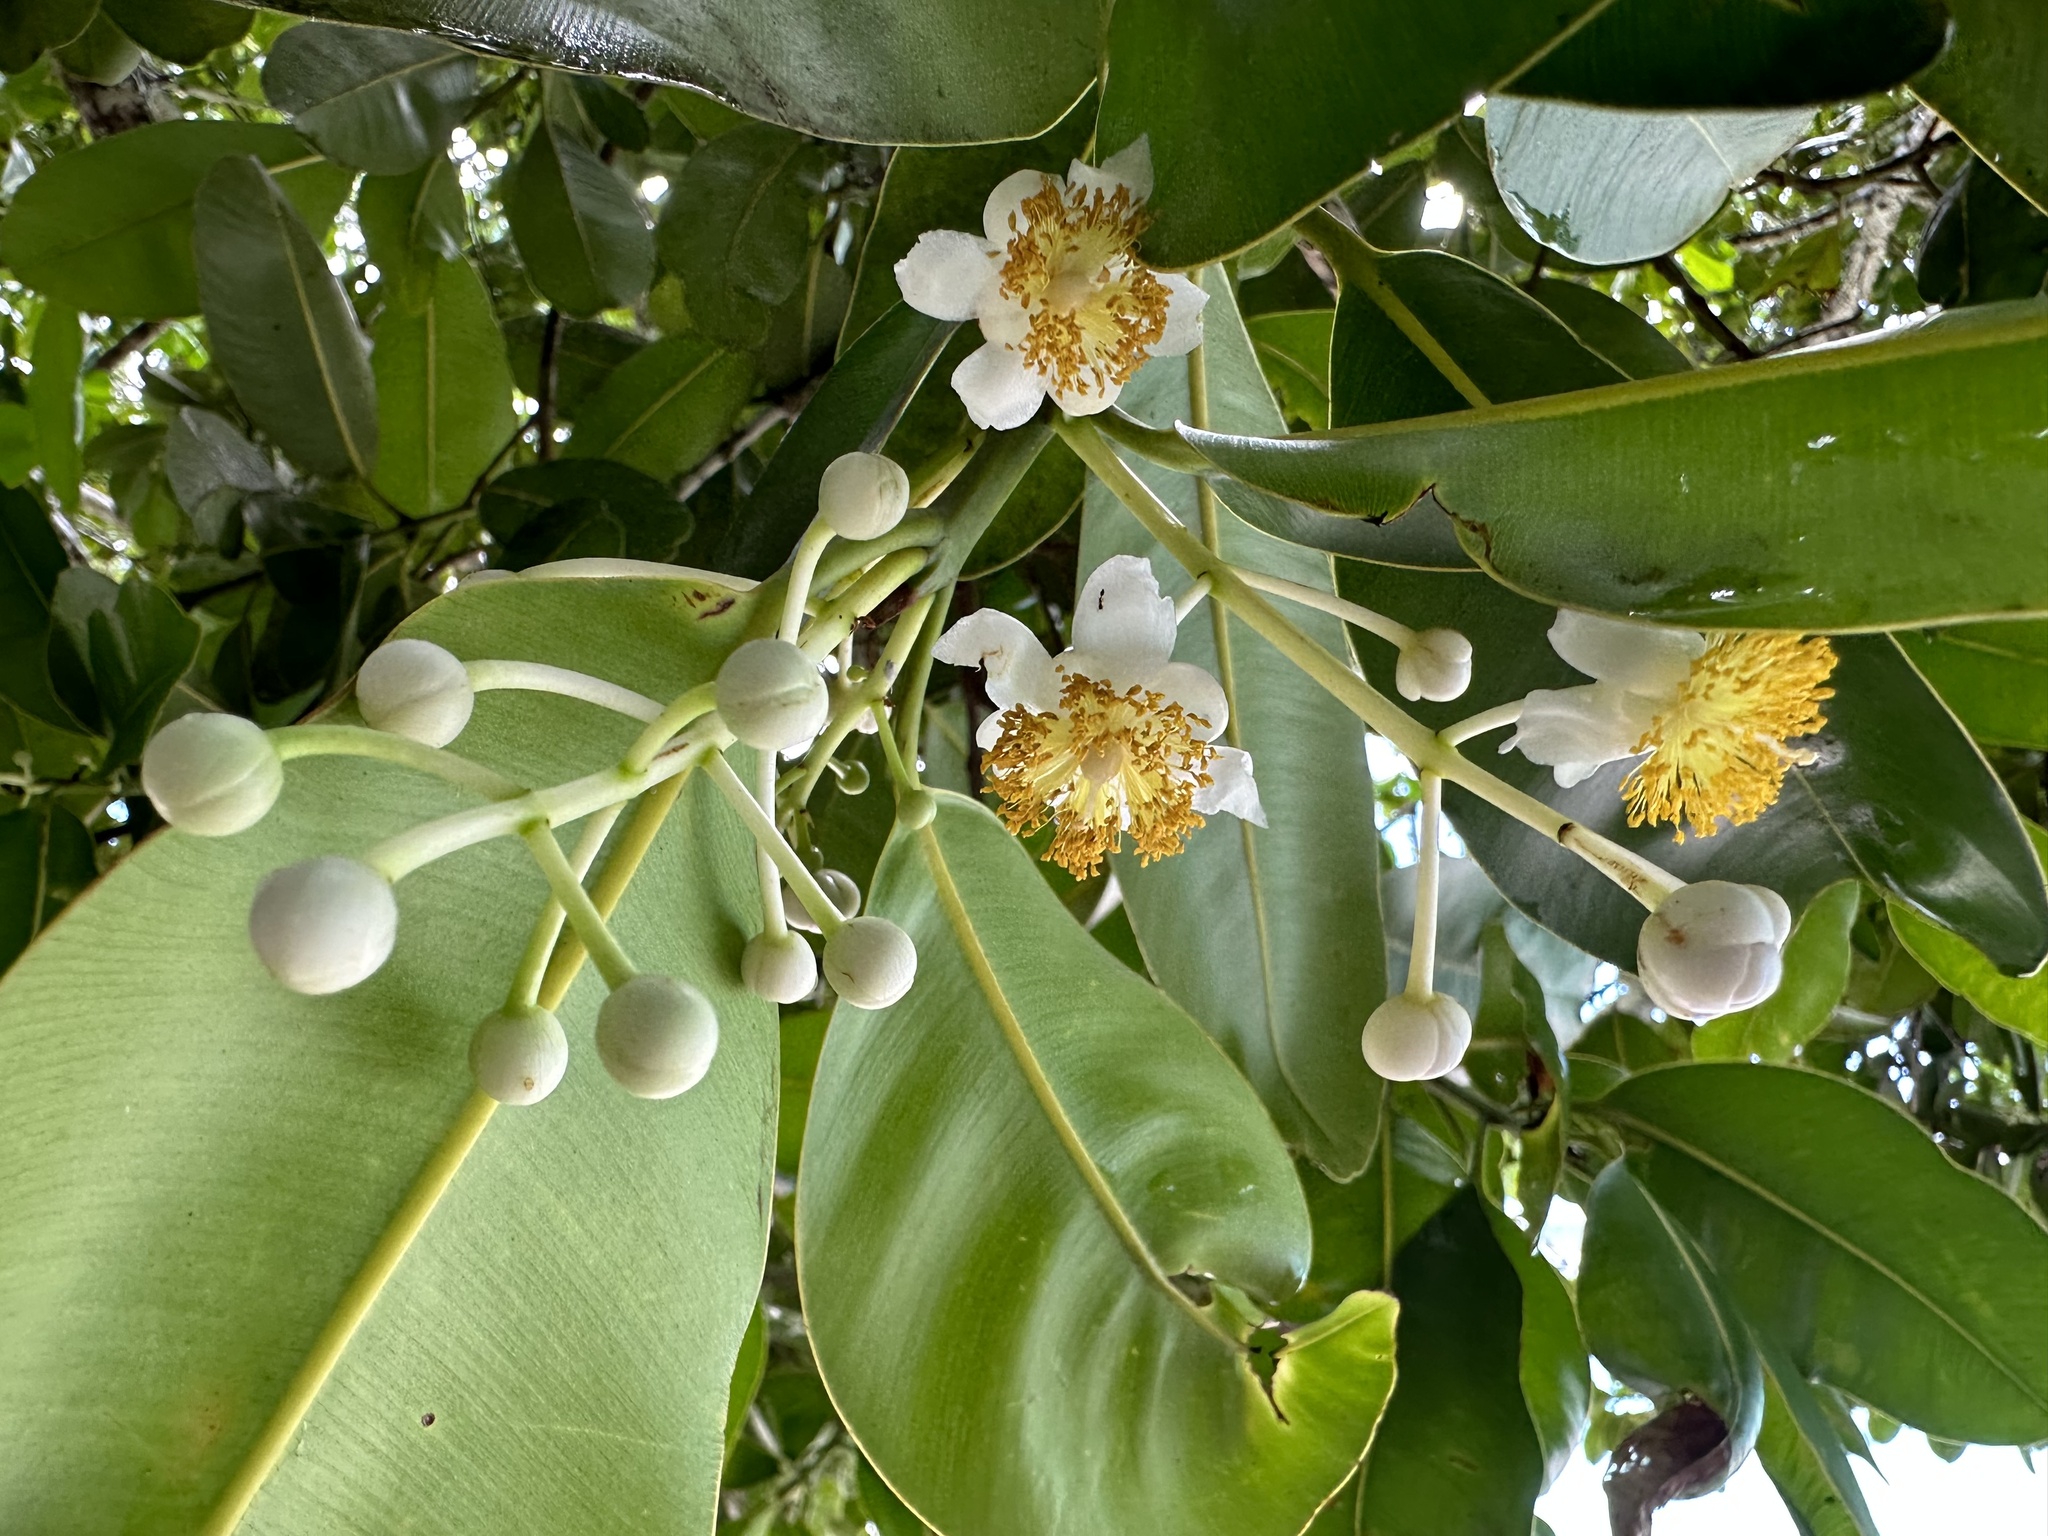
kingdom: Plantae
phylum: Tracheophyta
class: Magnoliopsida
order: Malpighiales
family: Calophyllaceae
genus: Calophyllum
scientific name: Calophyllum inophyllum
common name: Alexandrian laurel
